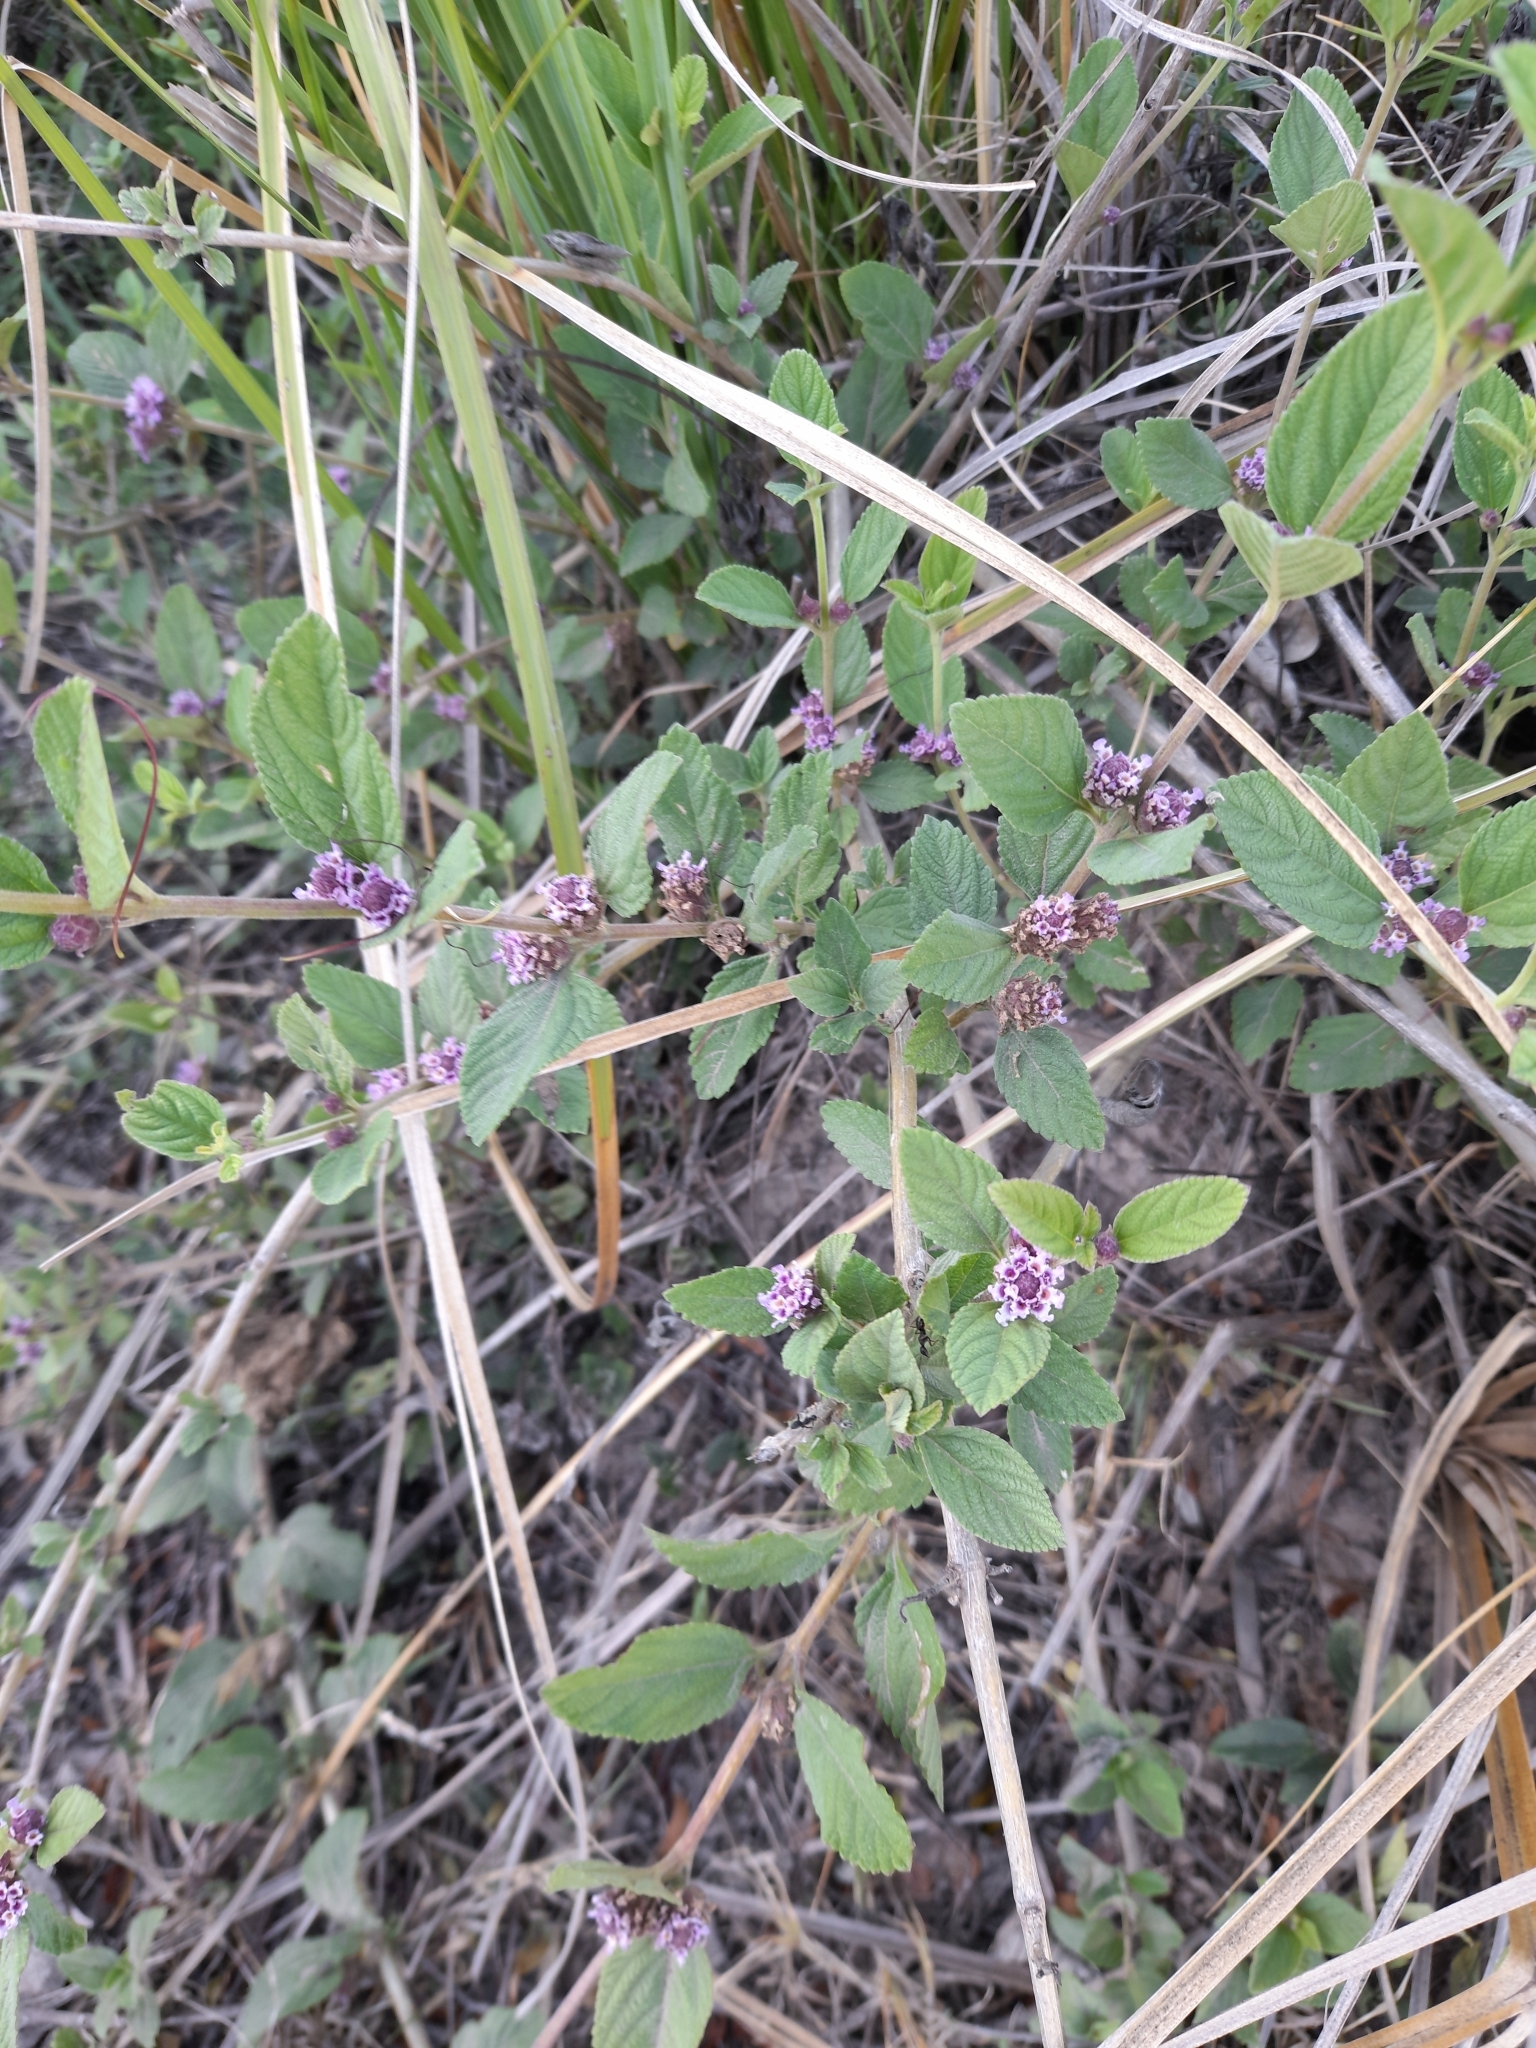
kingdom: Plantae
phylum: Tracheophyta
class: Magnoliopsida
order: Lamiales
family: Verbenaceae
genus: Lippia
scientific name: Lippia alba
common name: Bushy matgrass
